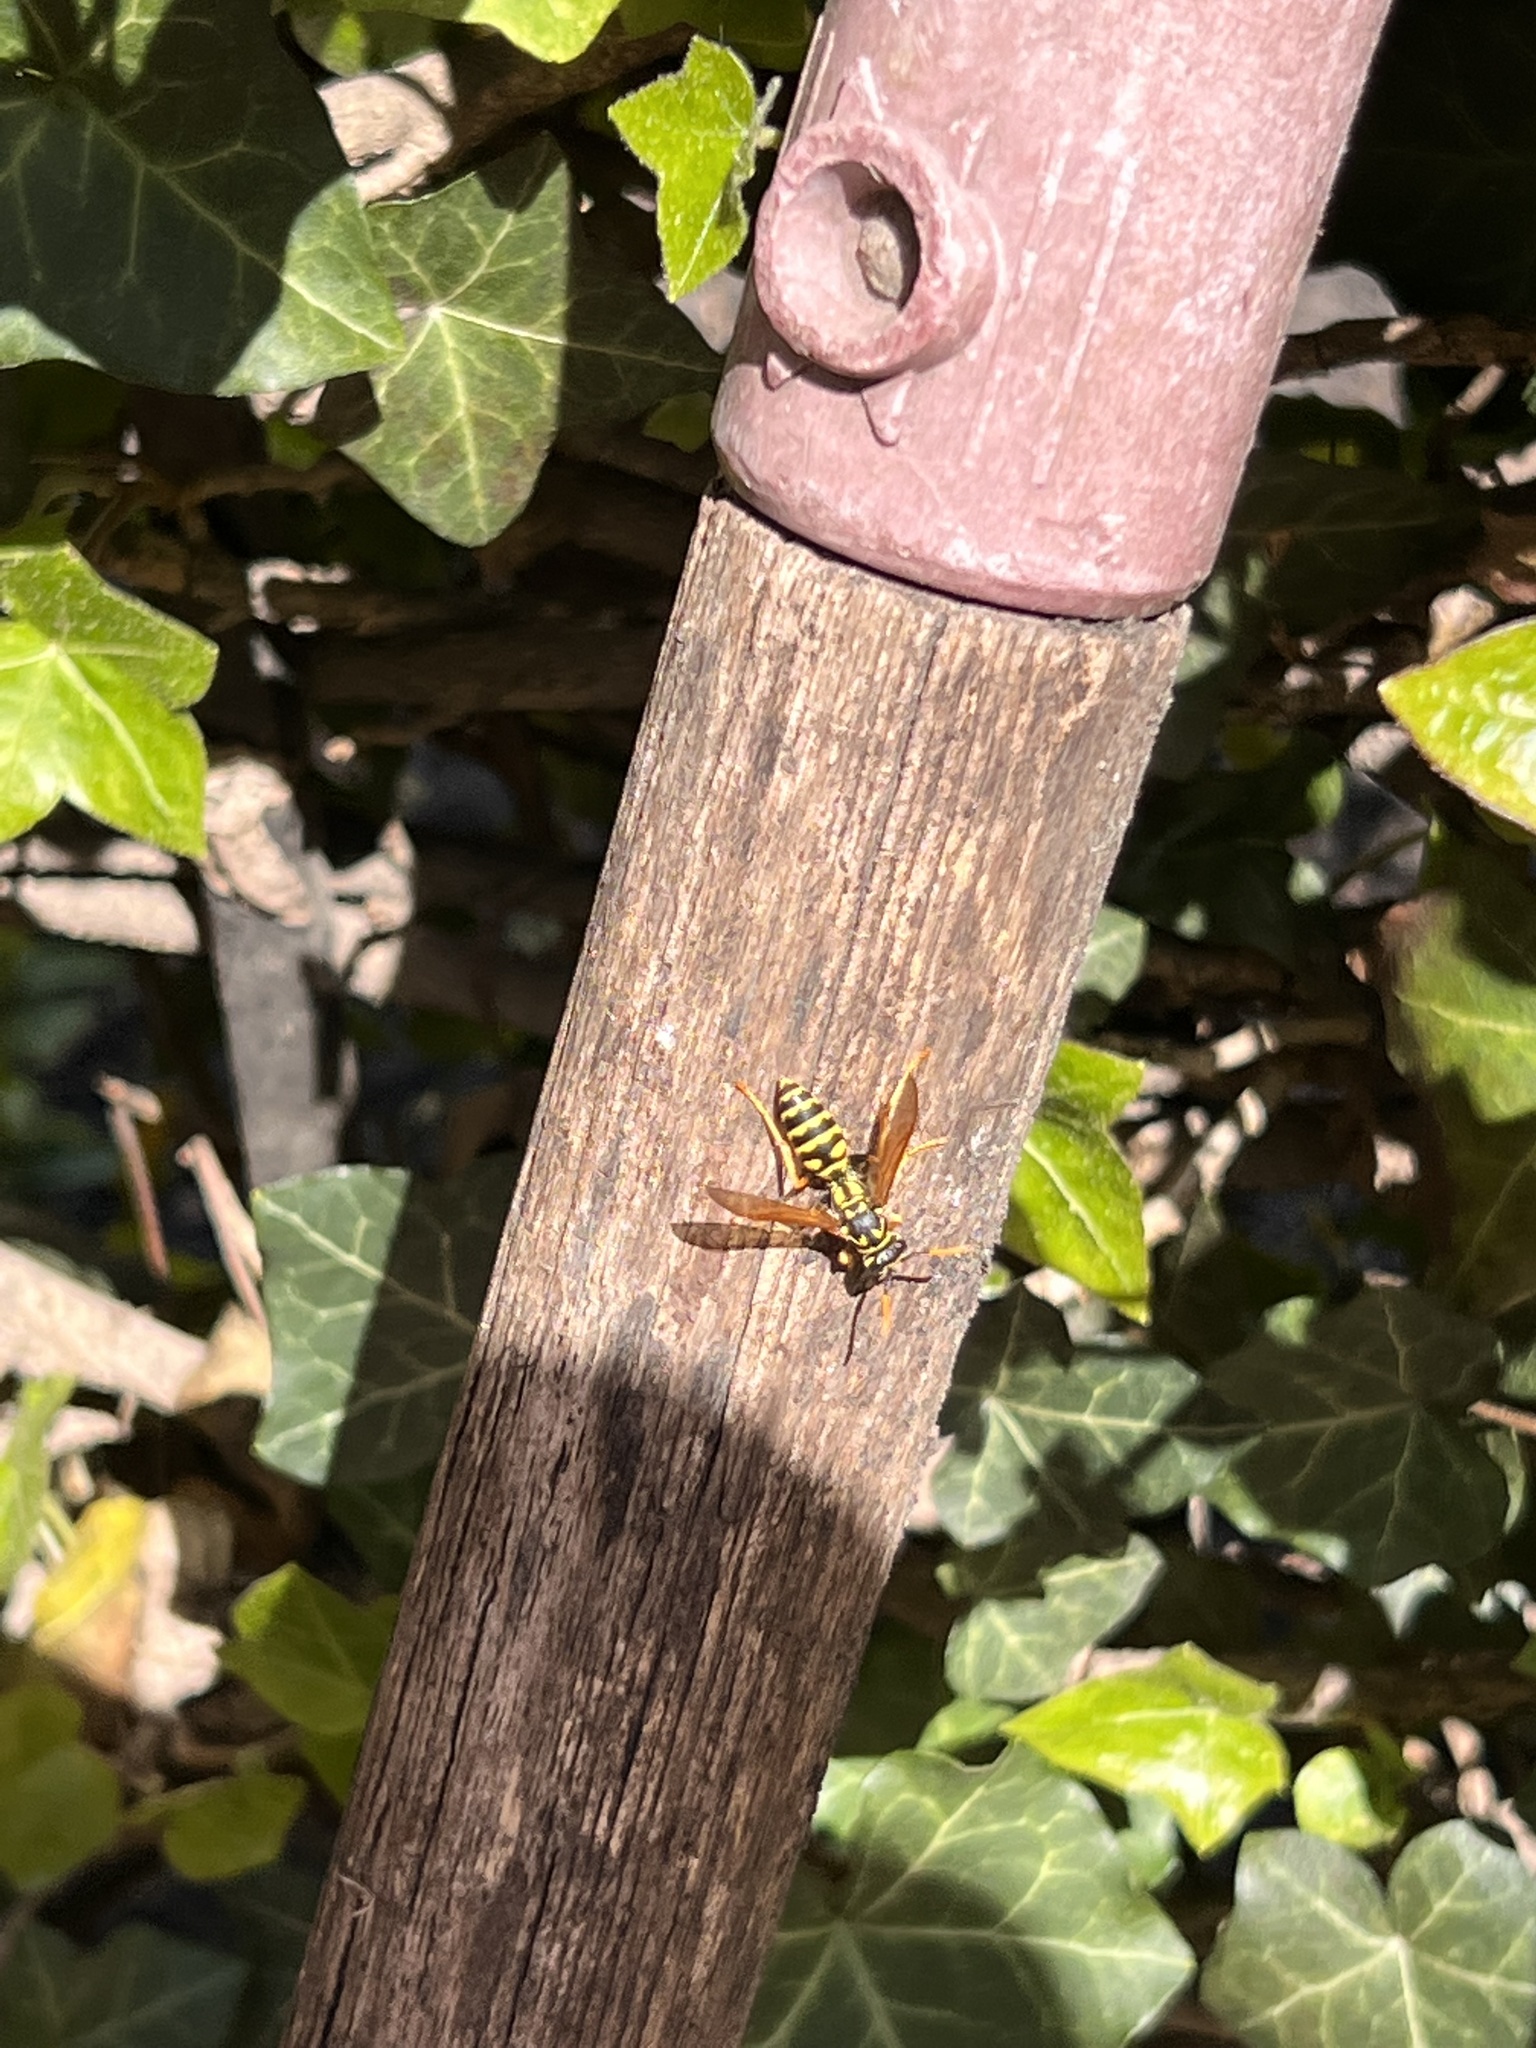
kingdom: Animalia
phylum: Arthropoda
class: Insecta
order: Hymenoptera
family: Eumenidae
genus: Polistes
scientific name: Polistes dominula
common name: Paper wasp
